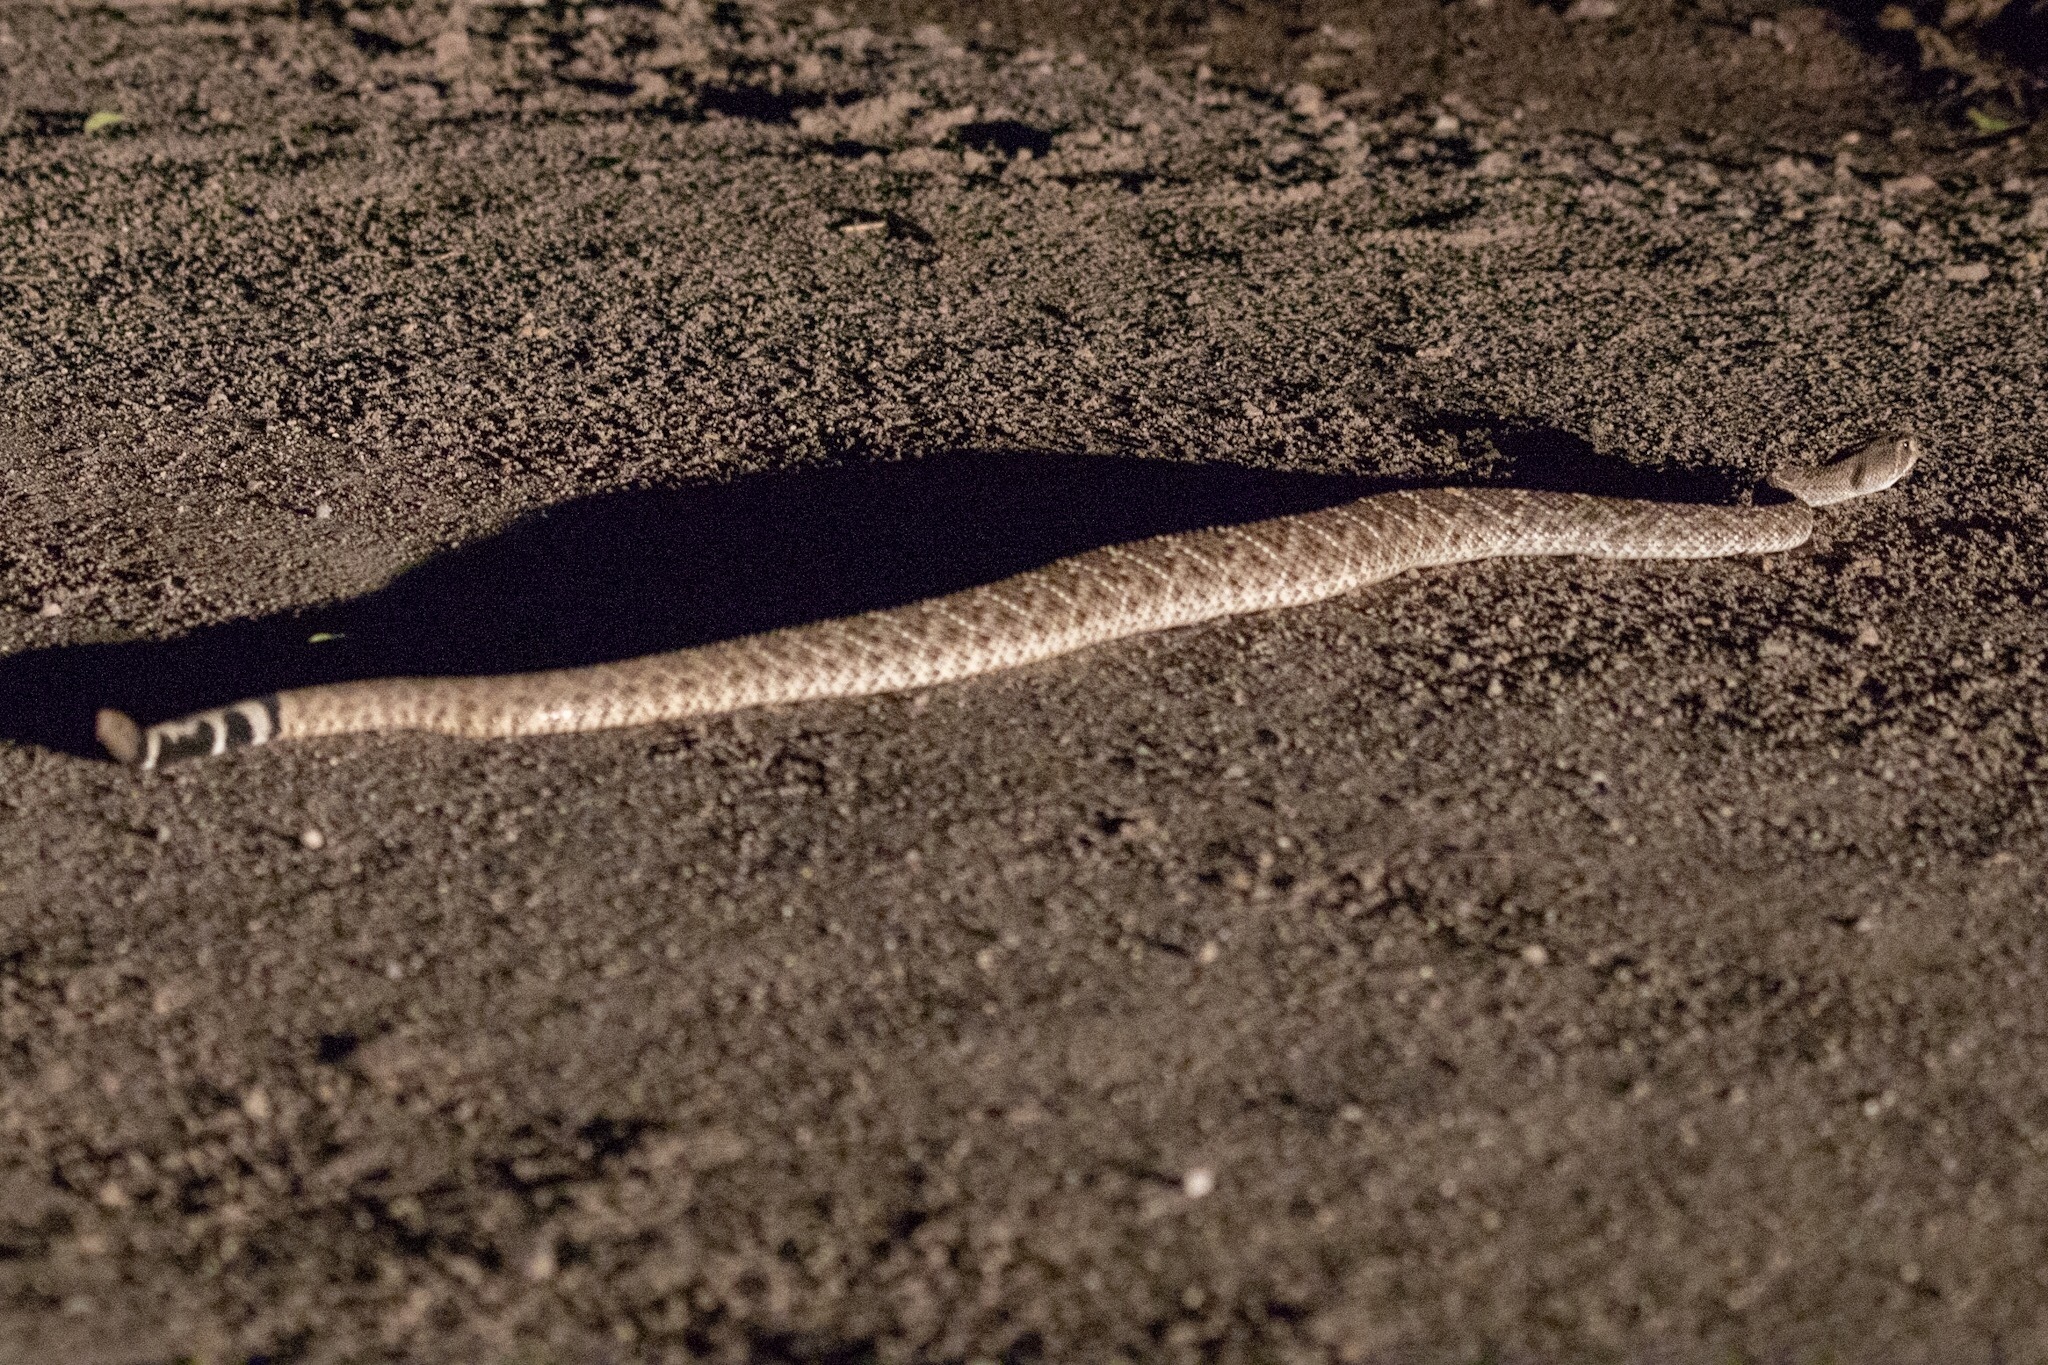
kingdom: Animalia
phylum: Chordata
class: Squamata
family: Viperidae
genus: Crotalus
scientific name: Crotalus atrox
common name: Western diamond-backed rattlesnake
